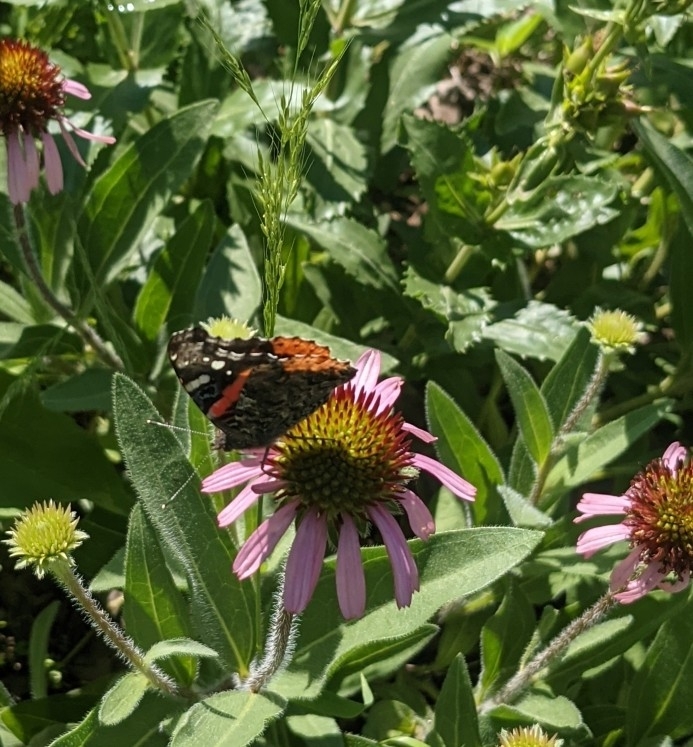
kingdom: Animalia
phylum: Arthropoda
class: Insecta
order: Lepidoptera
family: Nymphalidae
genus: Vanessa
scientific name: Vanessa atalanta
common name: Red admiral
